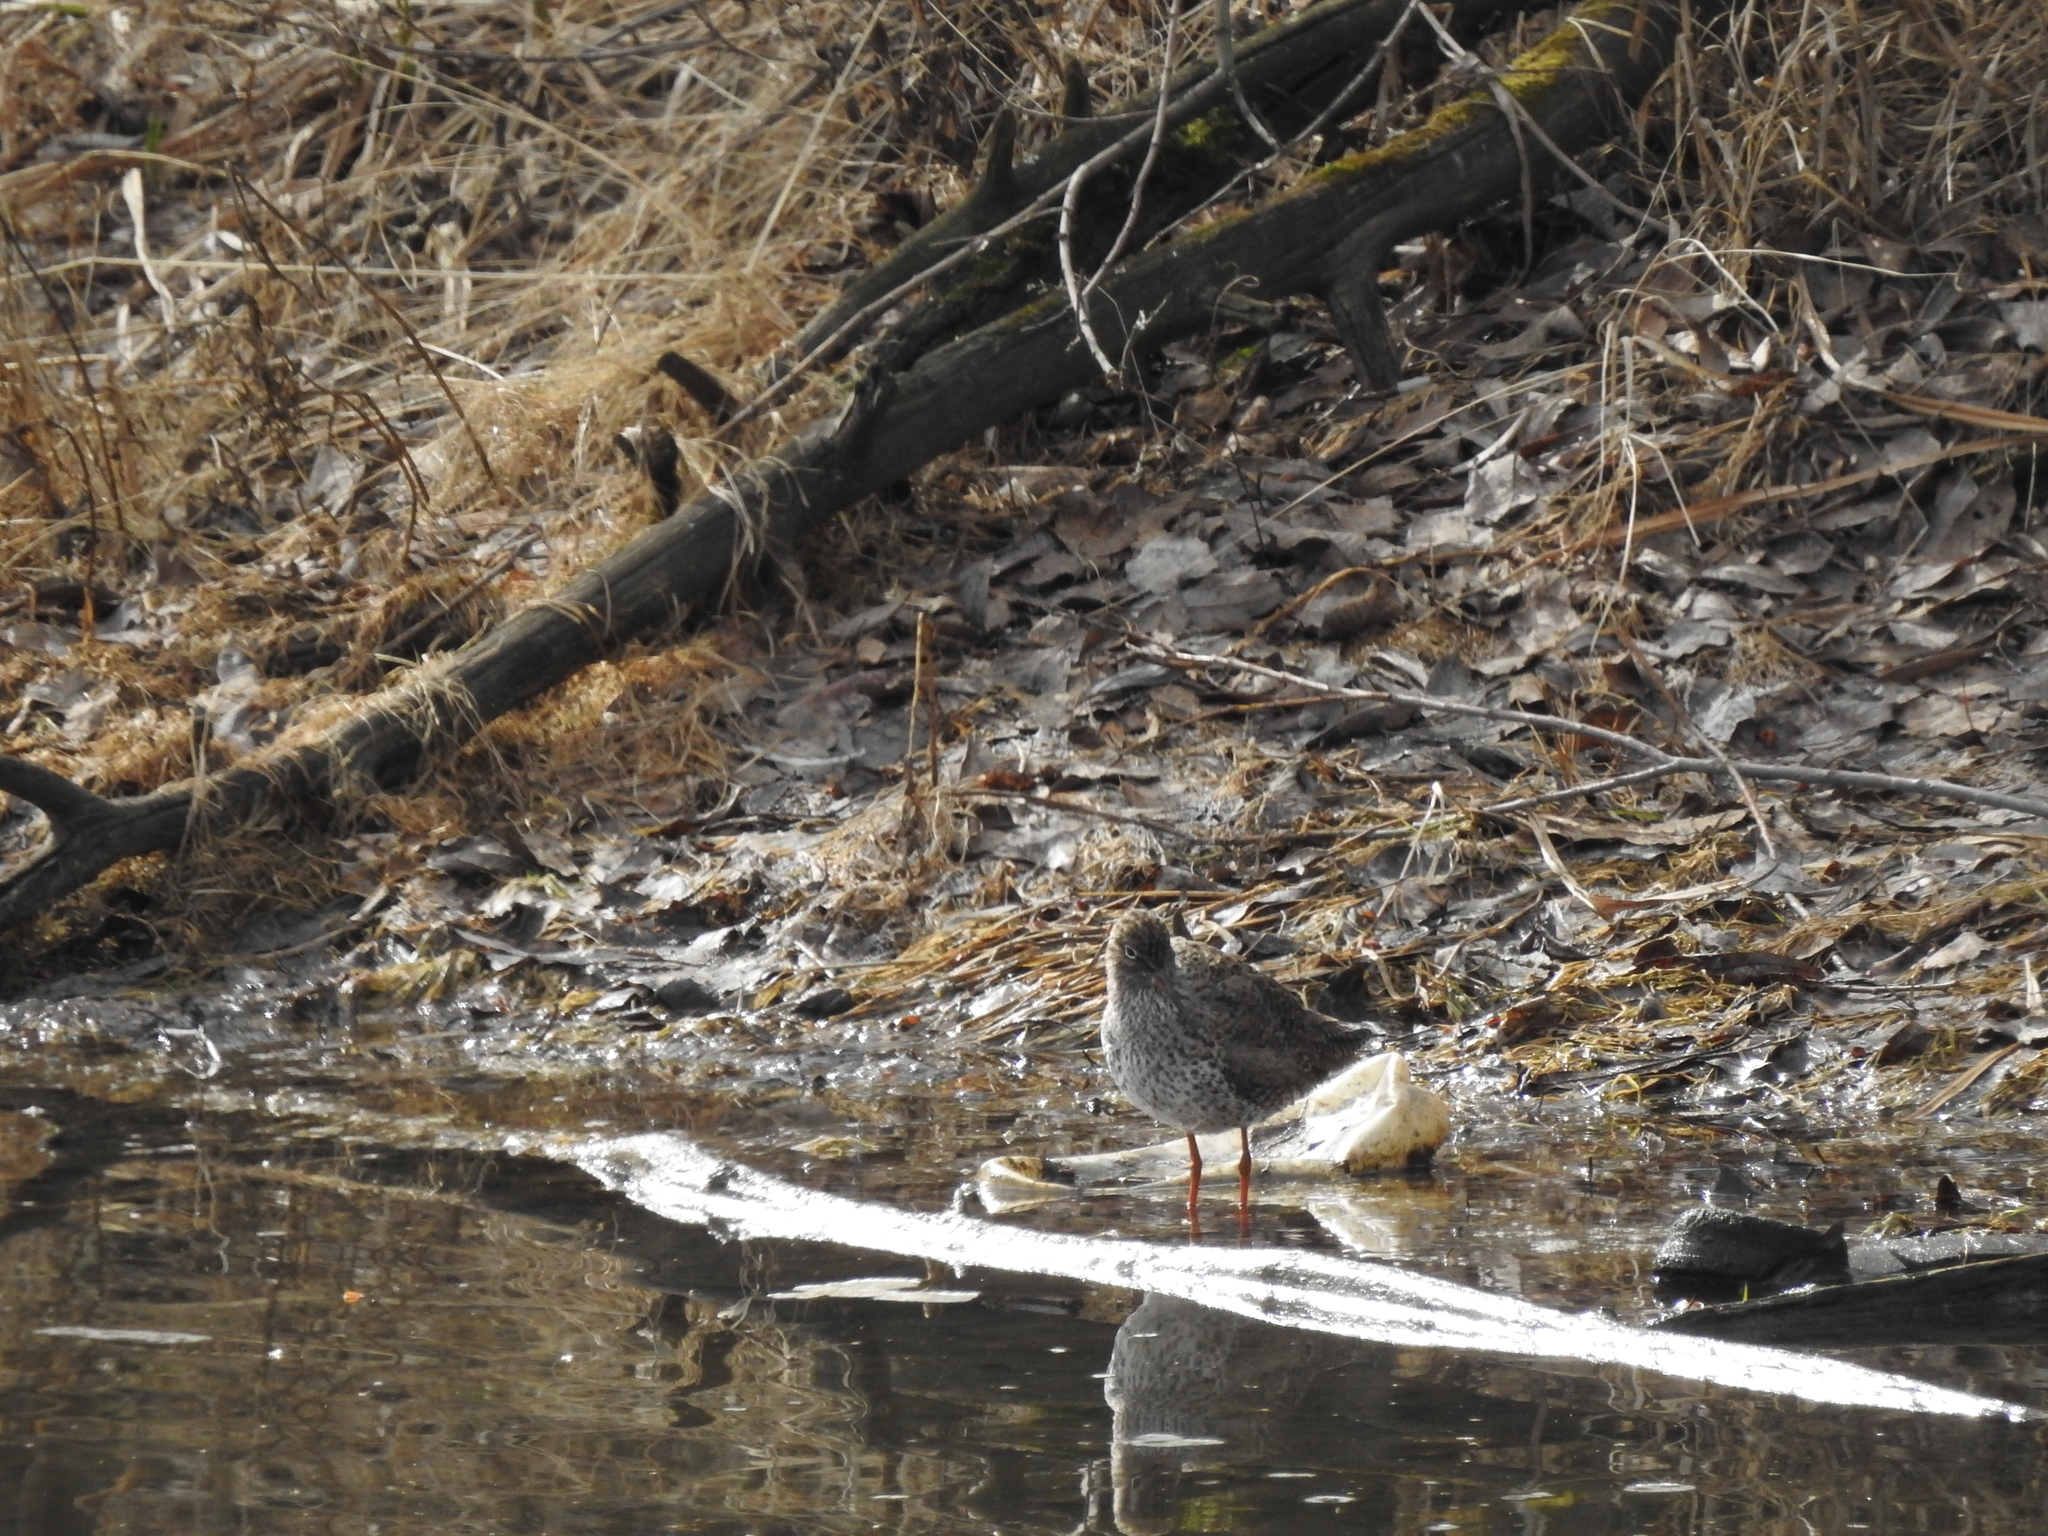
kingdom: Animalia
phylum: Chordata
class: Aves
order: Charadriiformes
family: Scolopacidae
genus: Tringa
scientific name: Tringa totanus
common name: Common redshank
